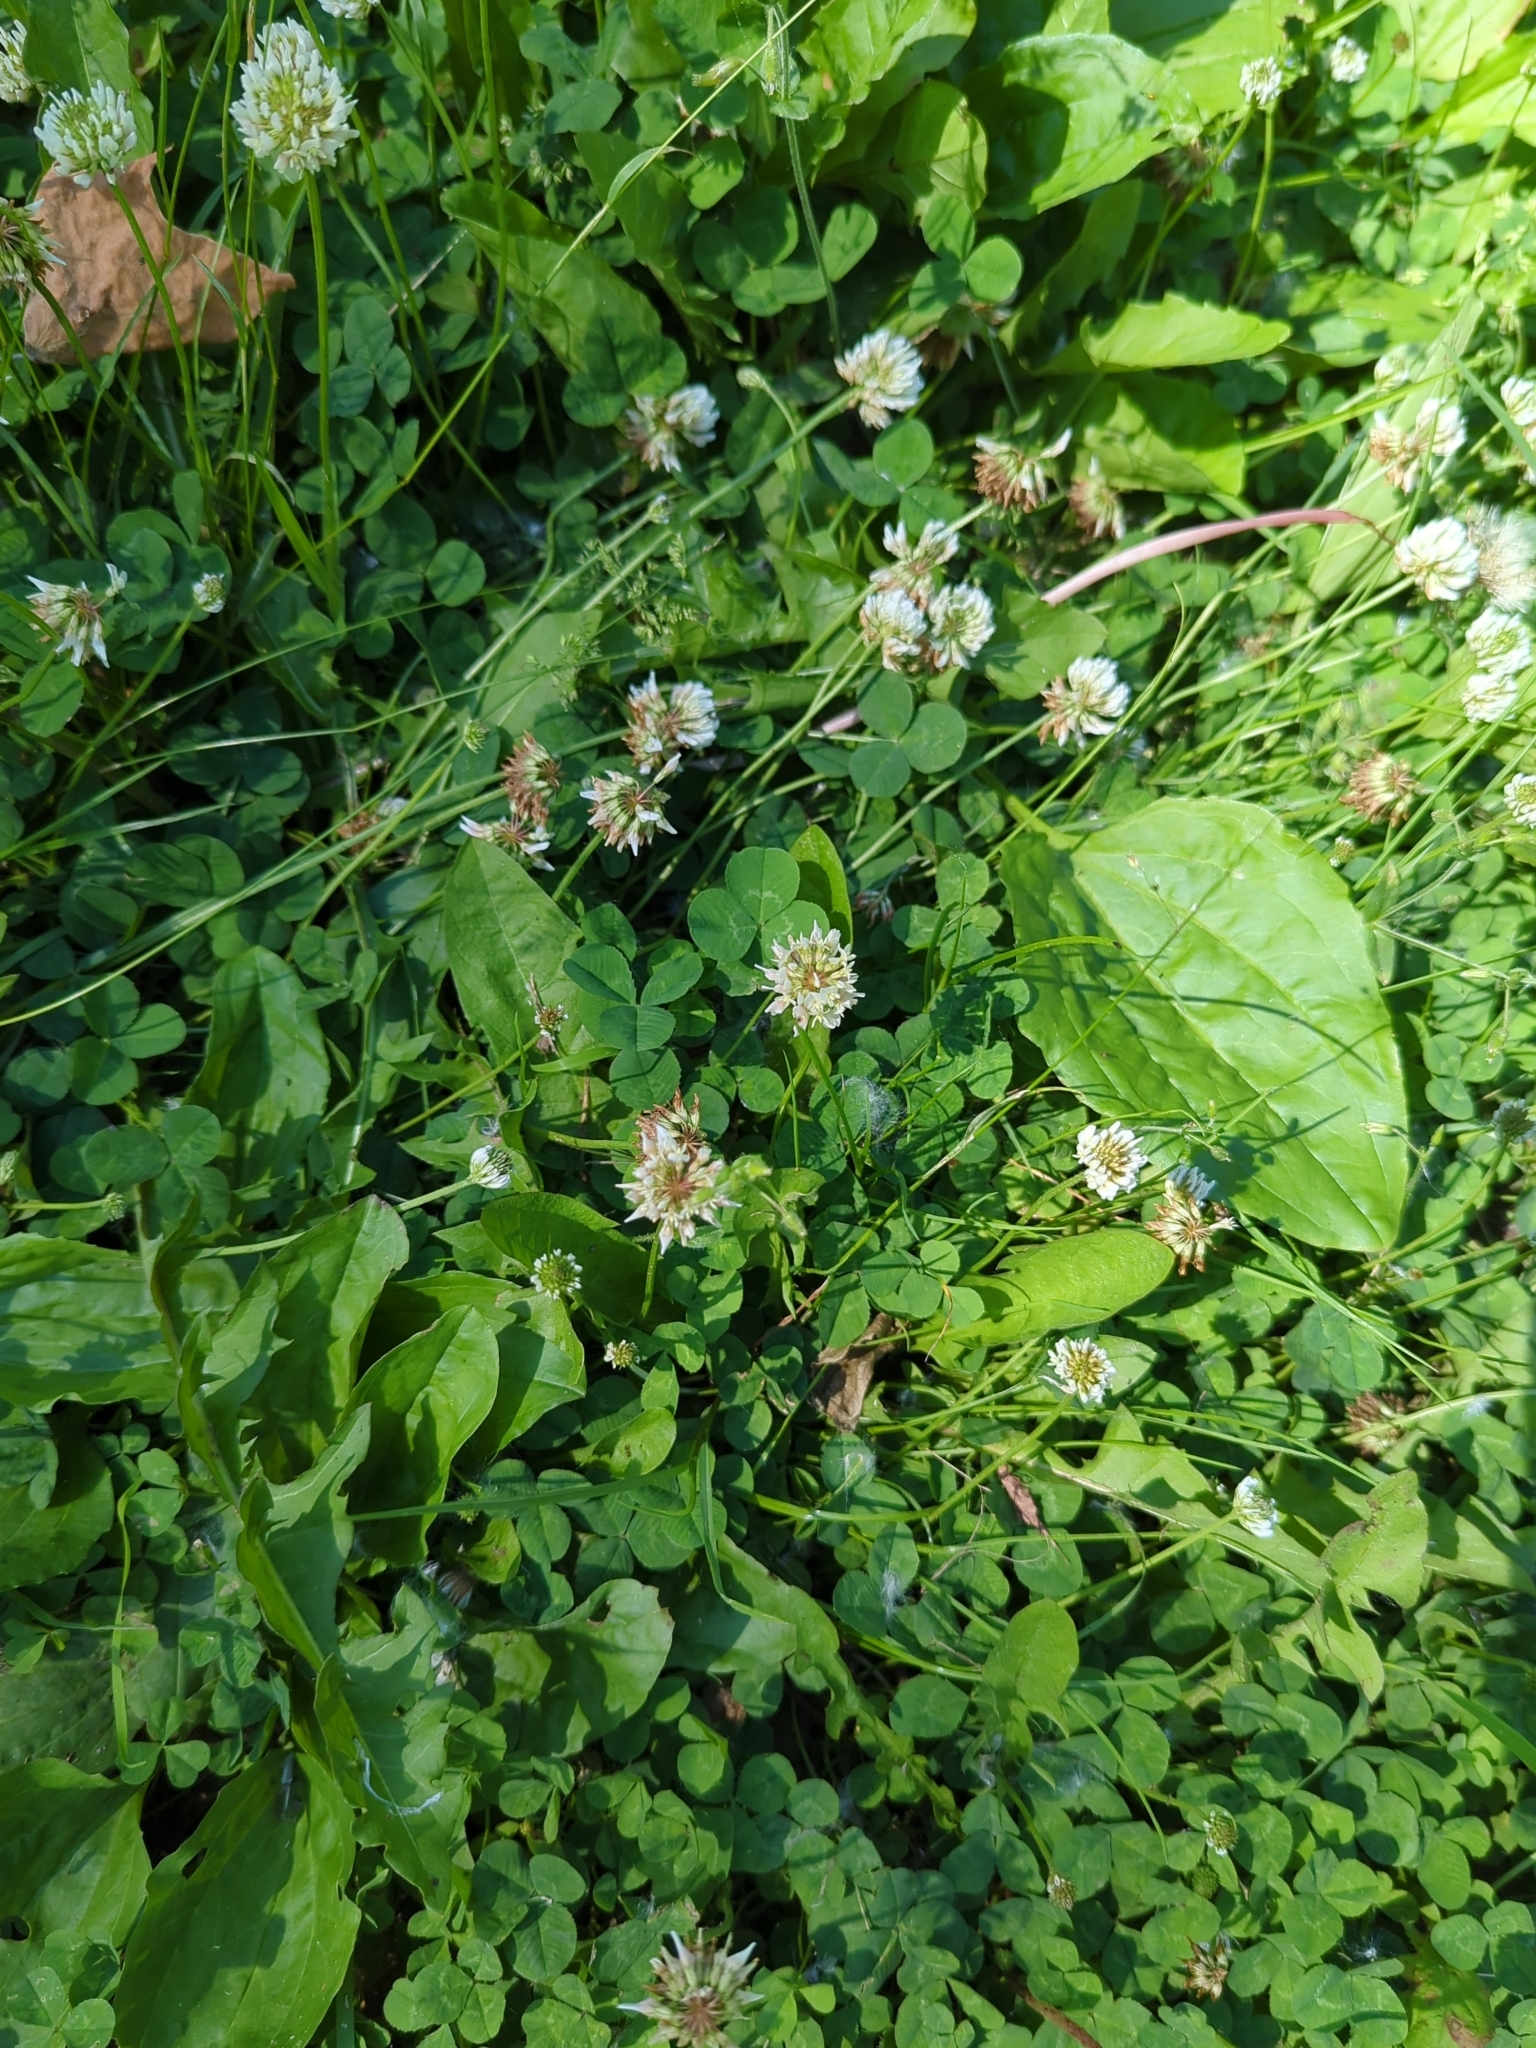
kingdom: Plantae
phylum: Tracheophyta
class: Magnoliopsida
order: Fabales
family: Fabaceae
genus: Trifolium
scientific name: Trifolium repens
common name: White clover
